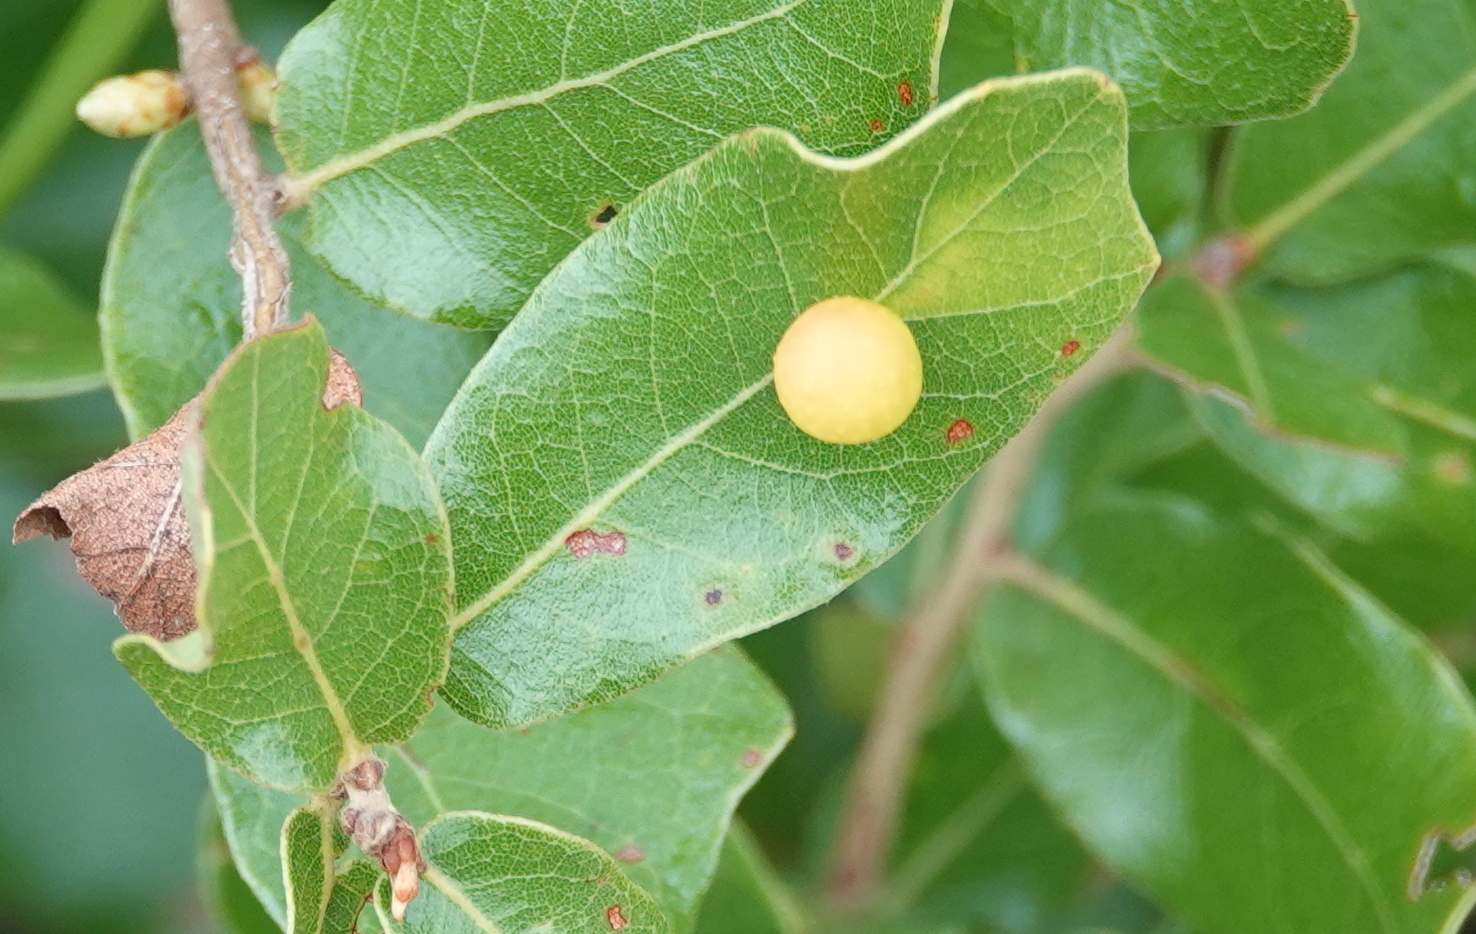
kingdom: Animalia
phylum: Arthropoda
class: Insecta
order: Hymenoptera
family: Cynipidae
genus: Trigonaspis
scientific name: Trigonaspis
